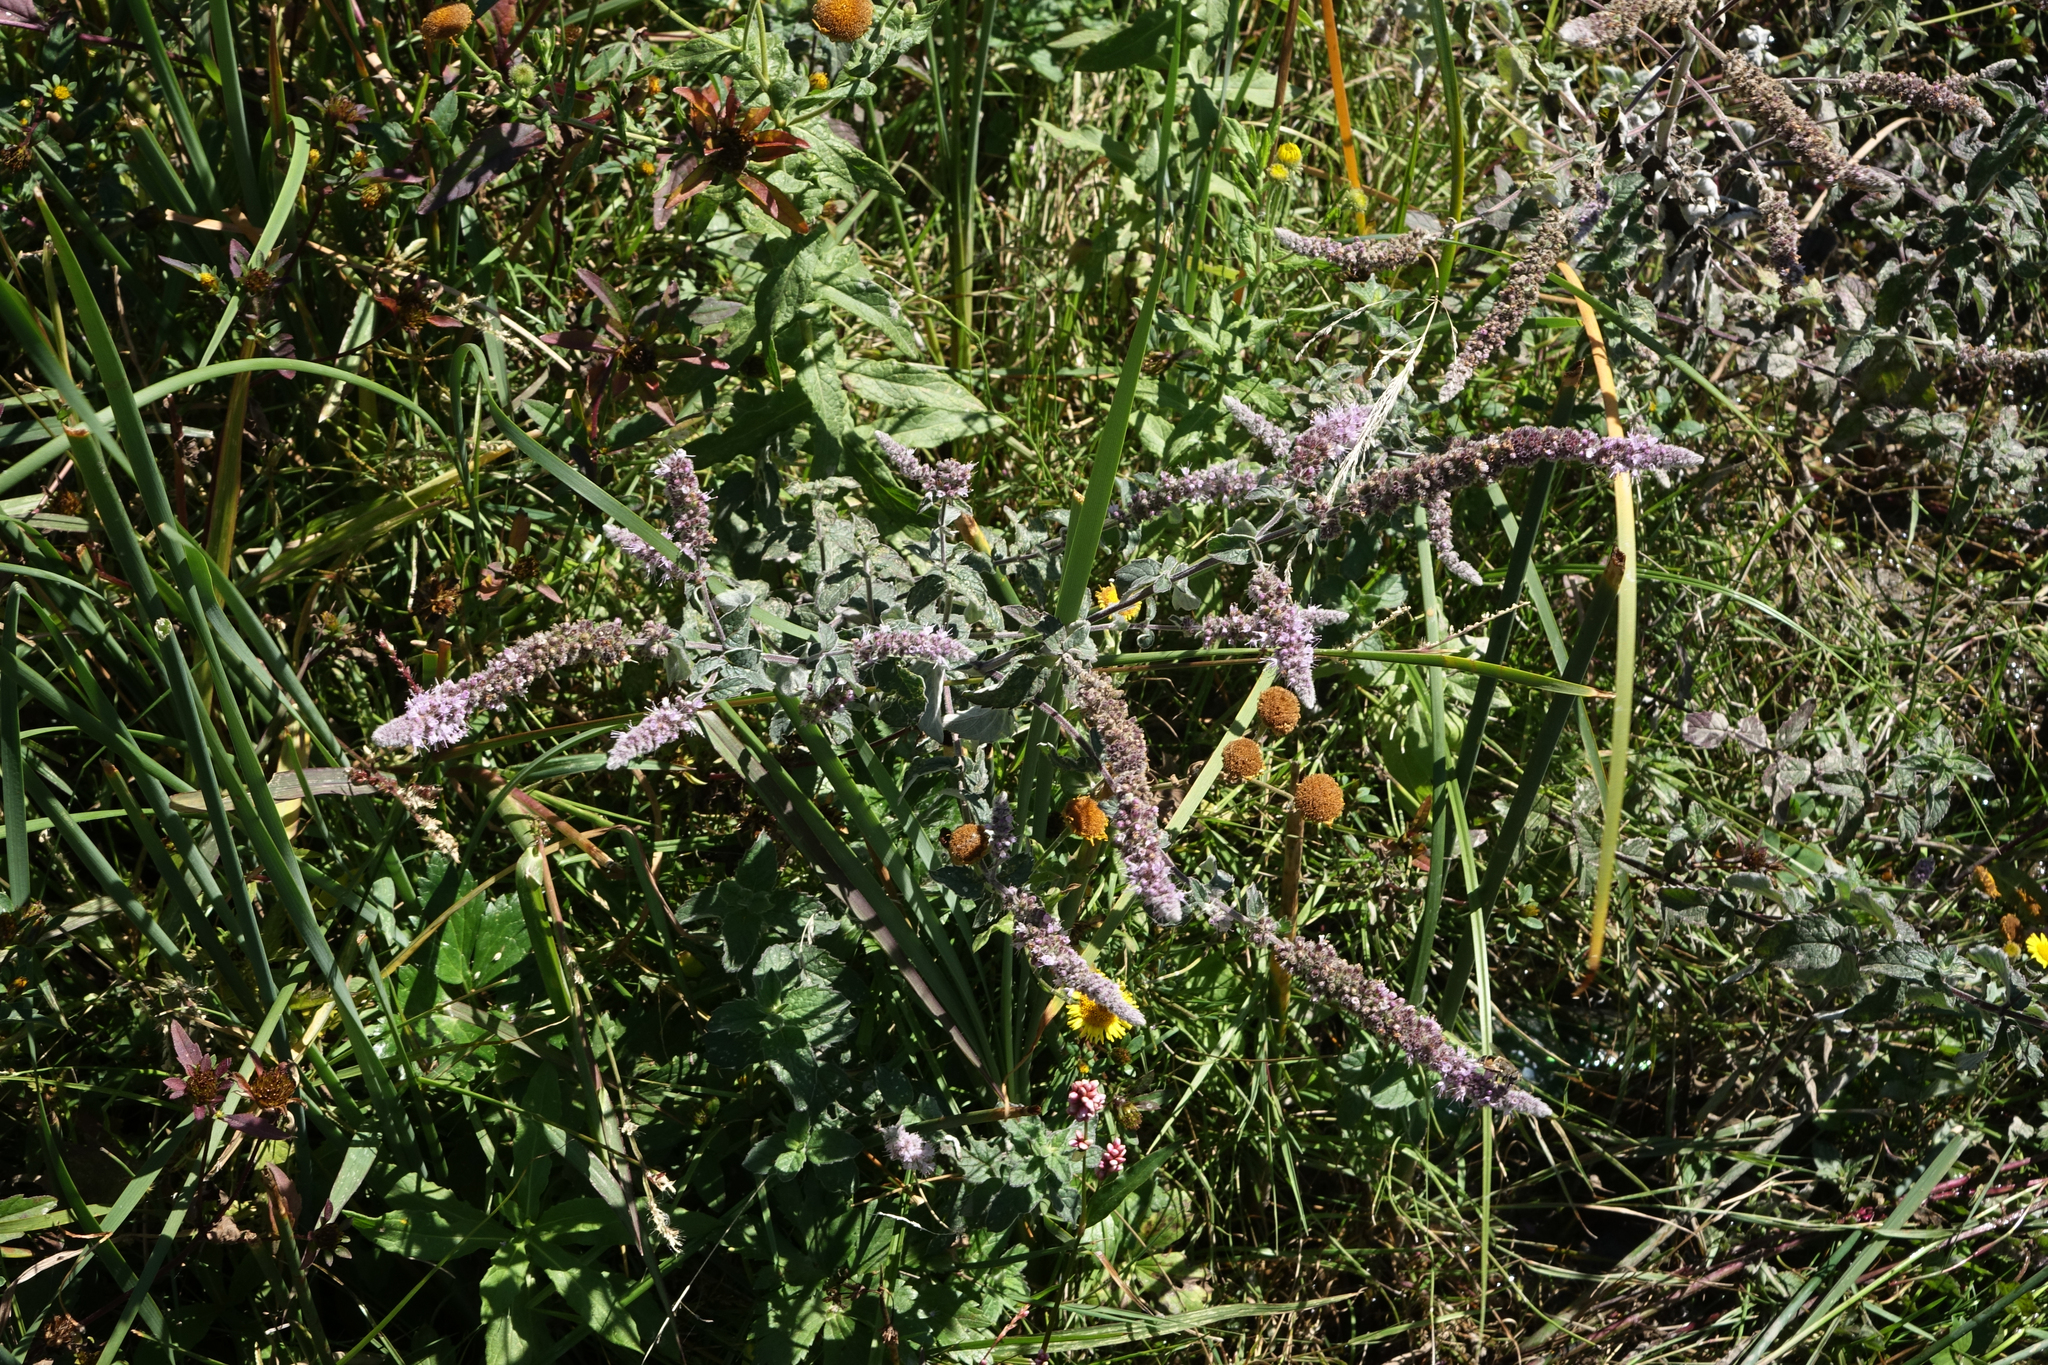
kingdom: Plantae
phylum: Tracheophyta
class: Magnoliopsida
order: Lamiales
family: Lamiaceae
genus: Mentha
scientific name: Mentha longifolia
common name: Horse mint
